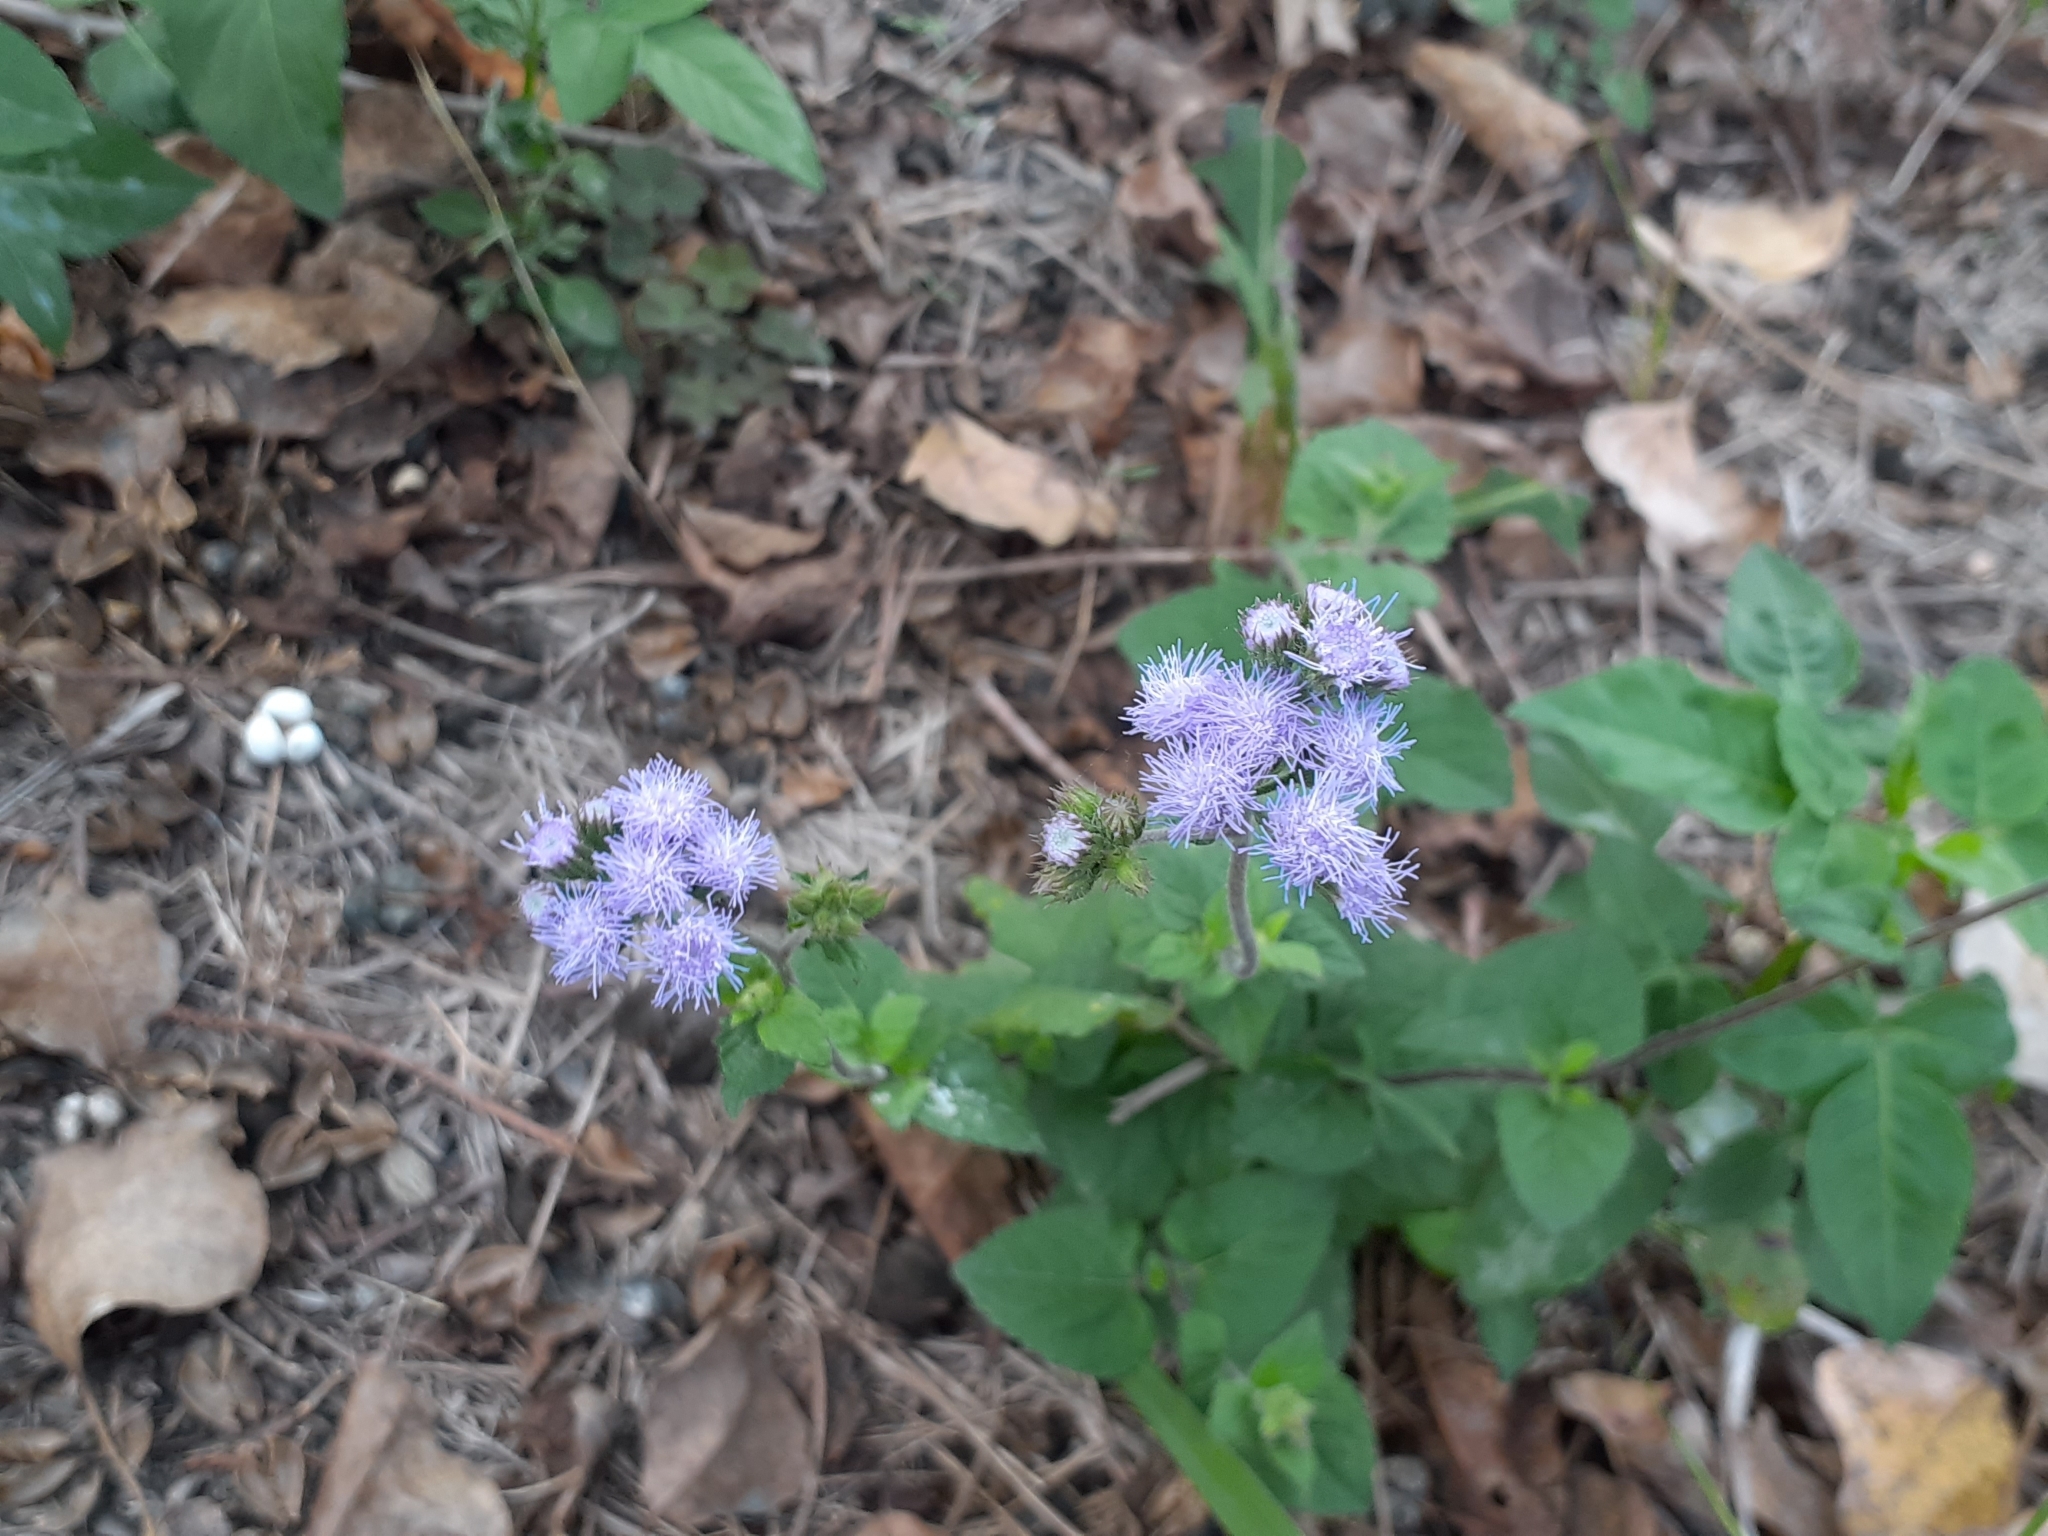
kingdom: Plantae
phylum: Tracheophyta
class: Magnoliopsida
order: Asterales
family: Asteraceae
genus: Ageratum
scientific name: Ageratum houstonianum
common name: Bluemink
